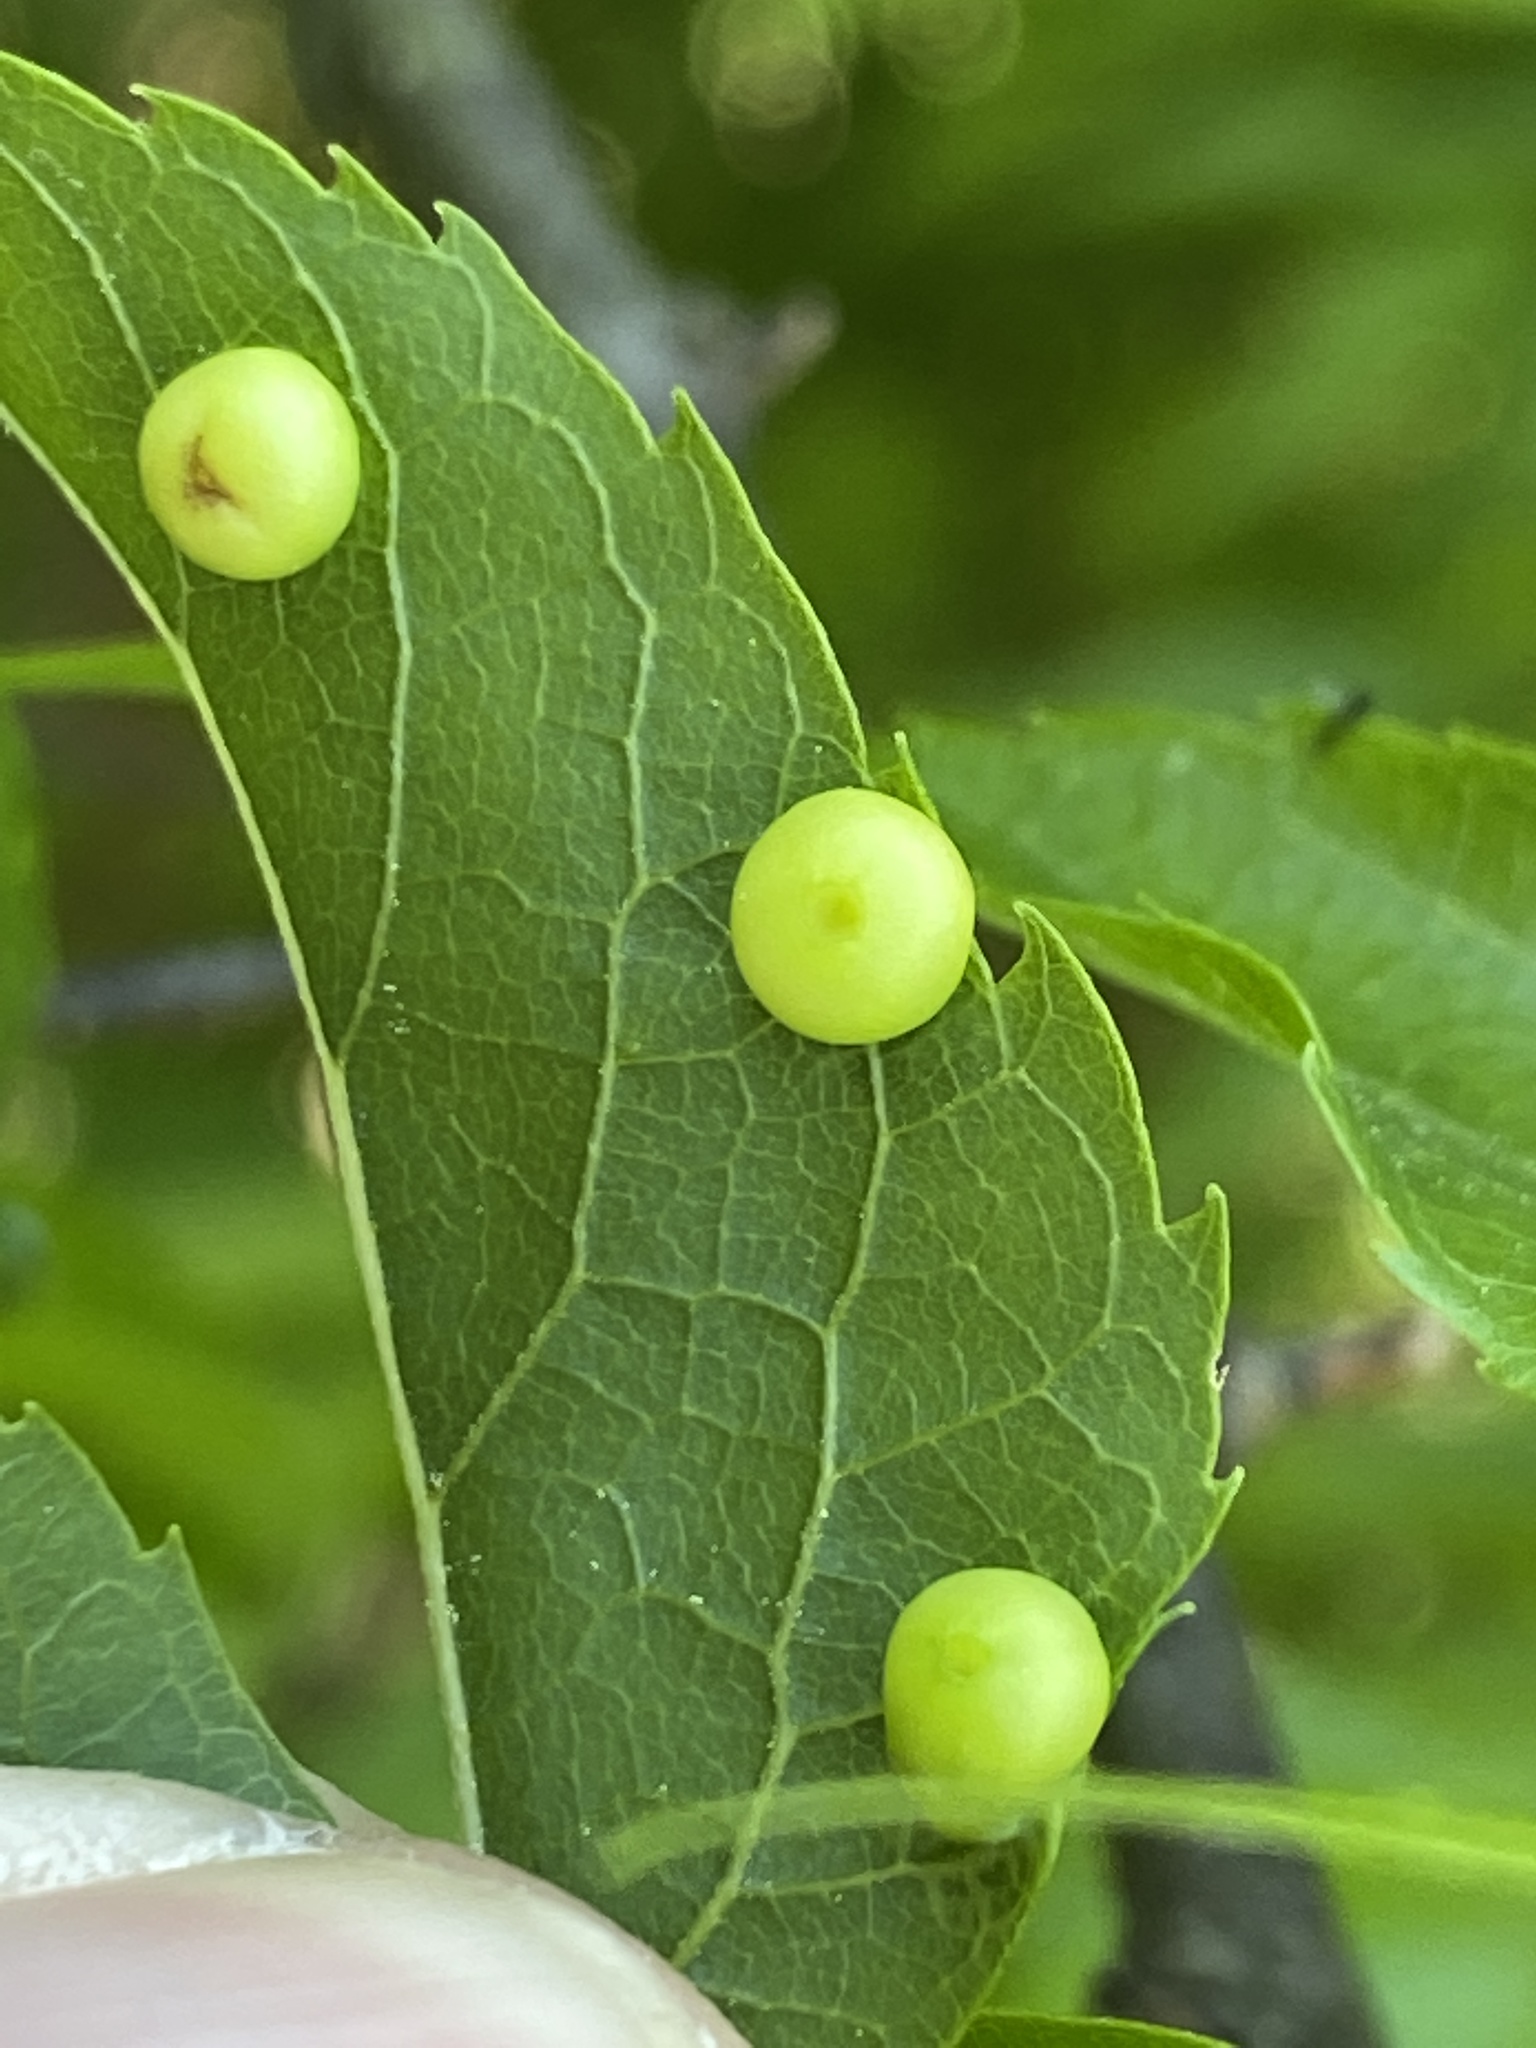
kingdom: Animalia
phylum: Arthropoda
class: Insecta
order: Hemiptera
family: Aphalaridae
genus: Pachypsylla
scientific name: Pachypsylla celtidismamma
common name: Hackberry nipplegall psyllid
